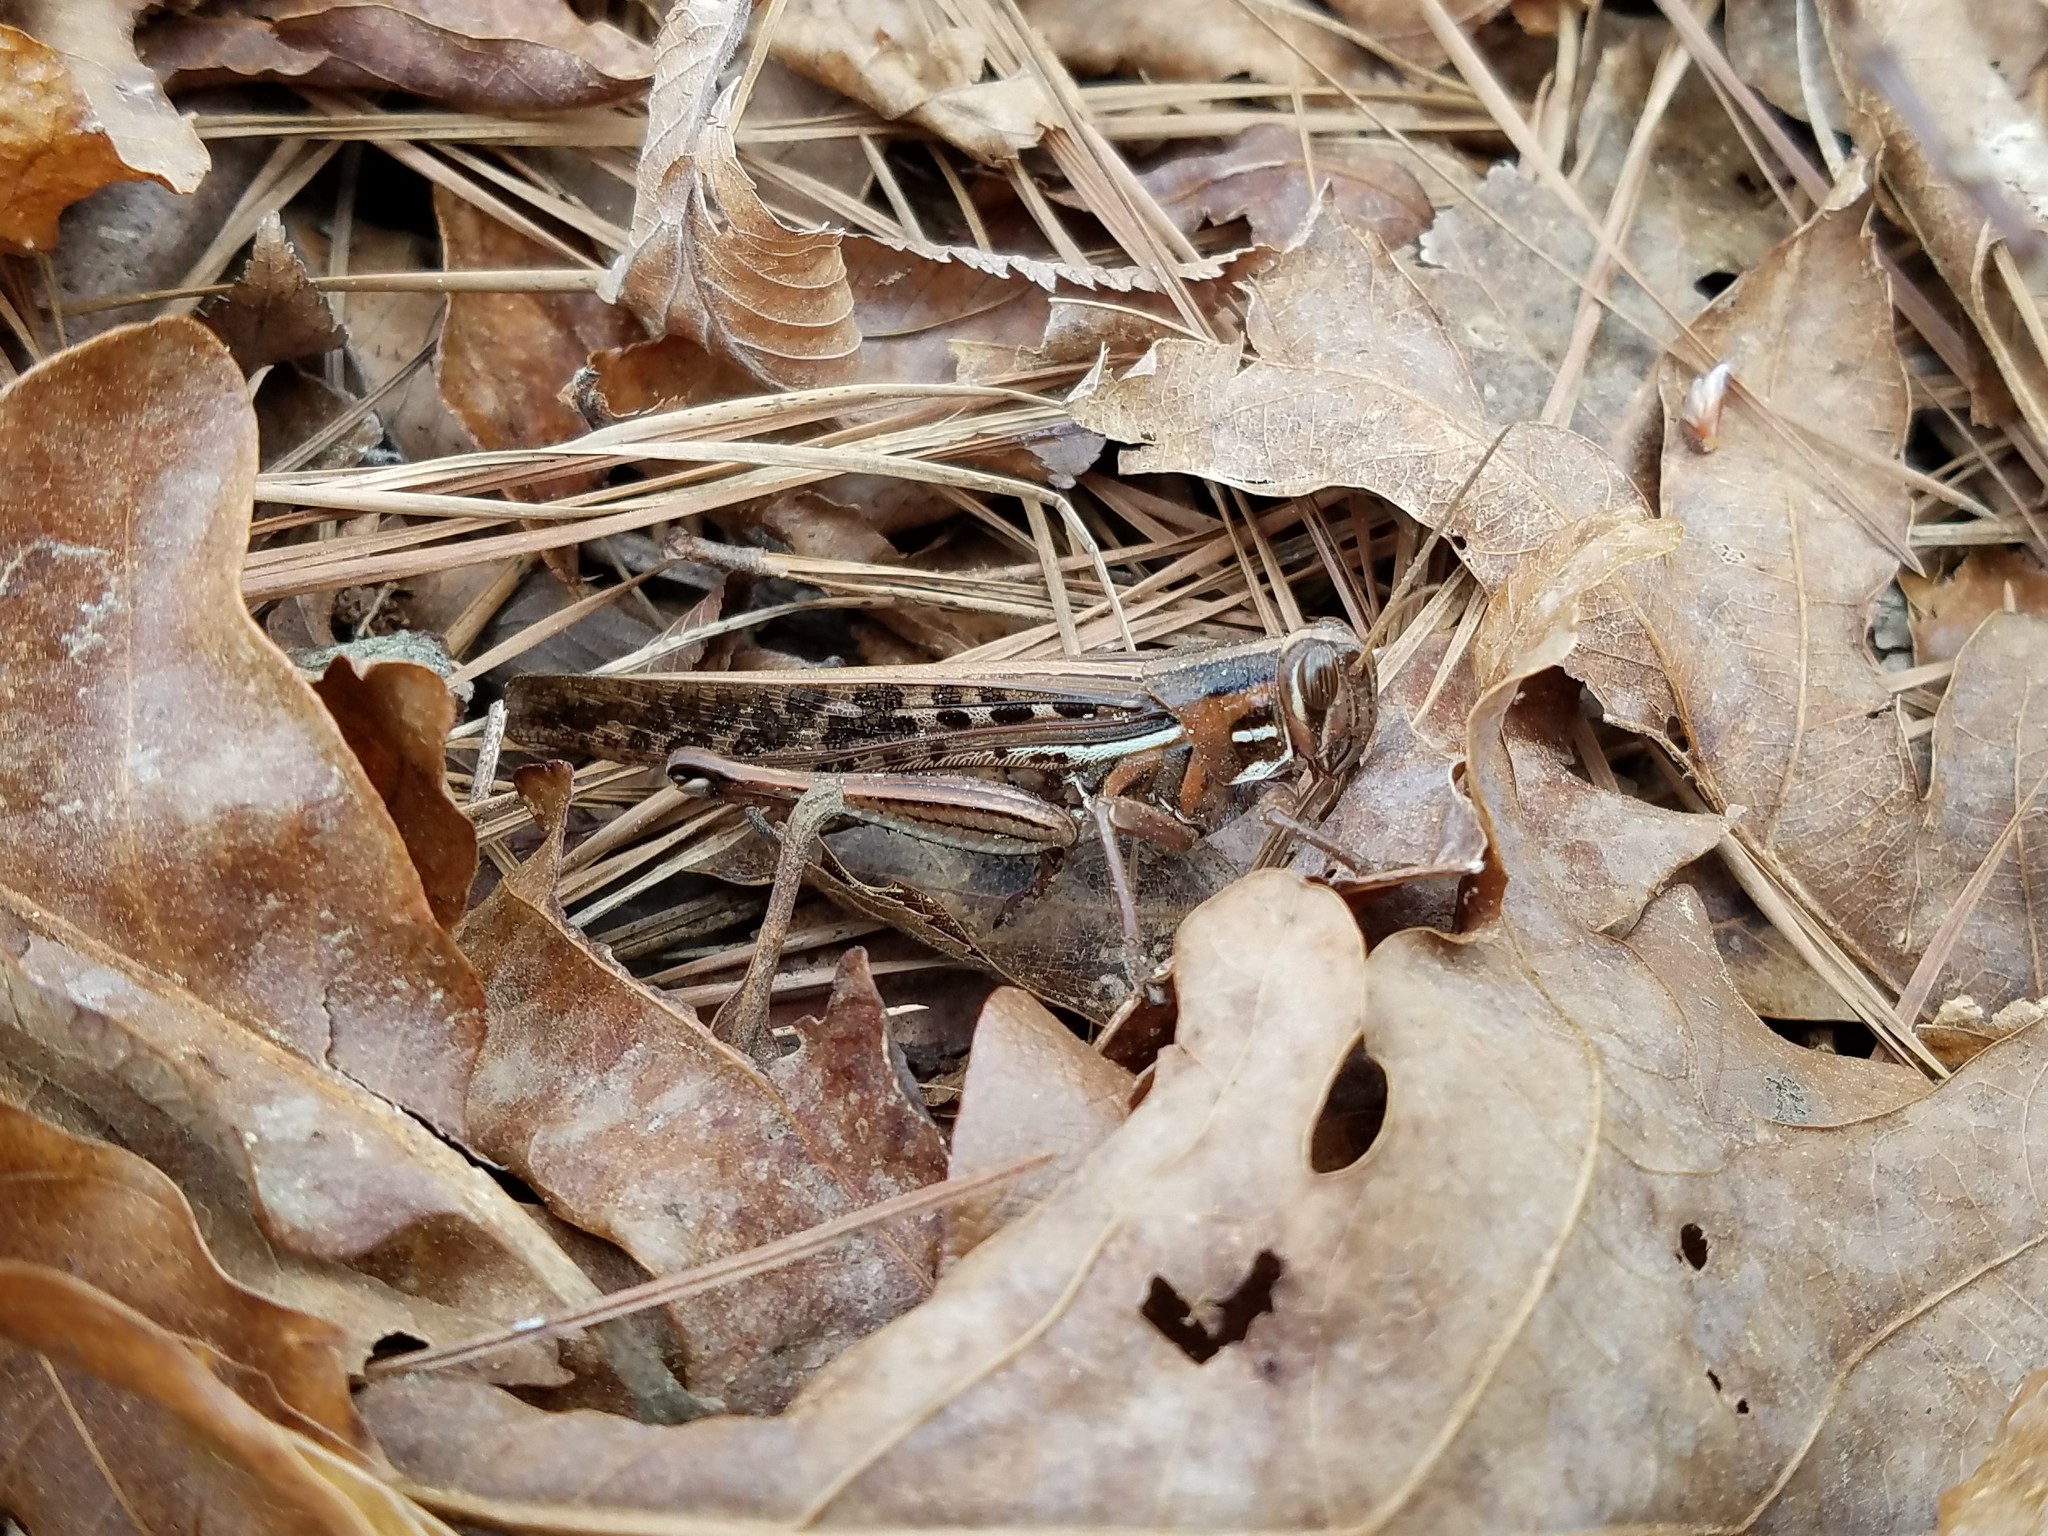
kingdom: Animalia
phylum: Arthropoda
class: Insecta
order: Orthoptera
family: Acrididae
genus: Schistocerca
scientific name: Schistocerca americana
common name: American bird locust
